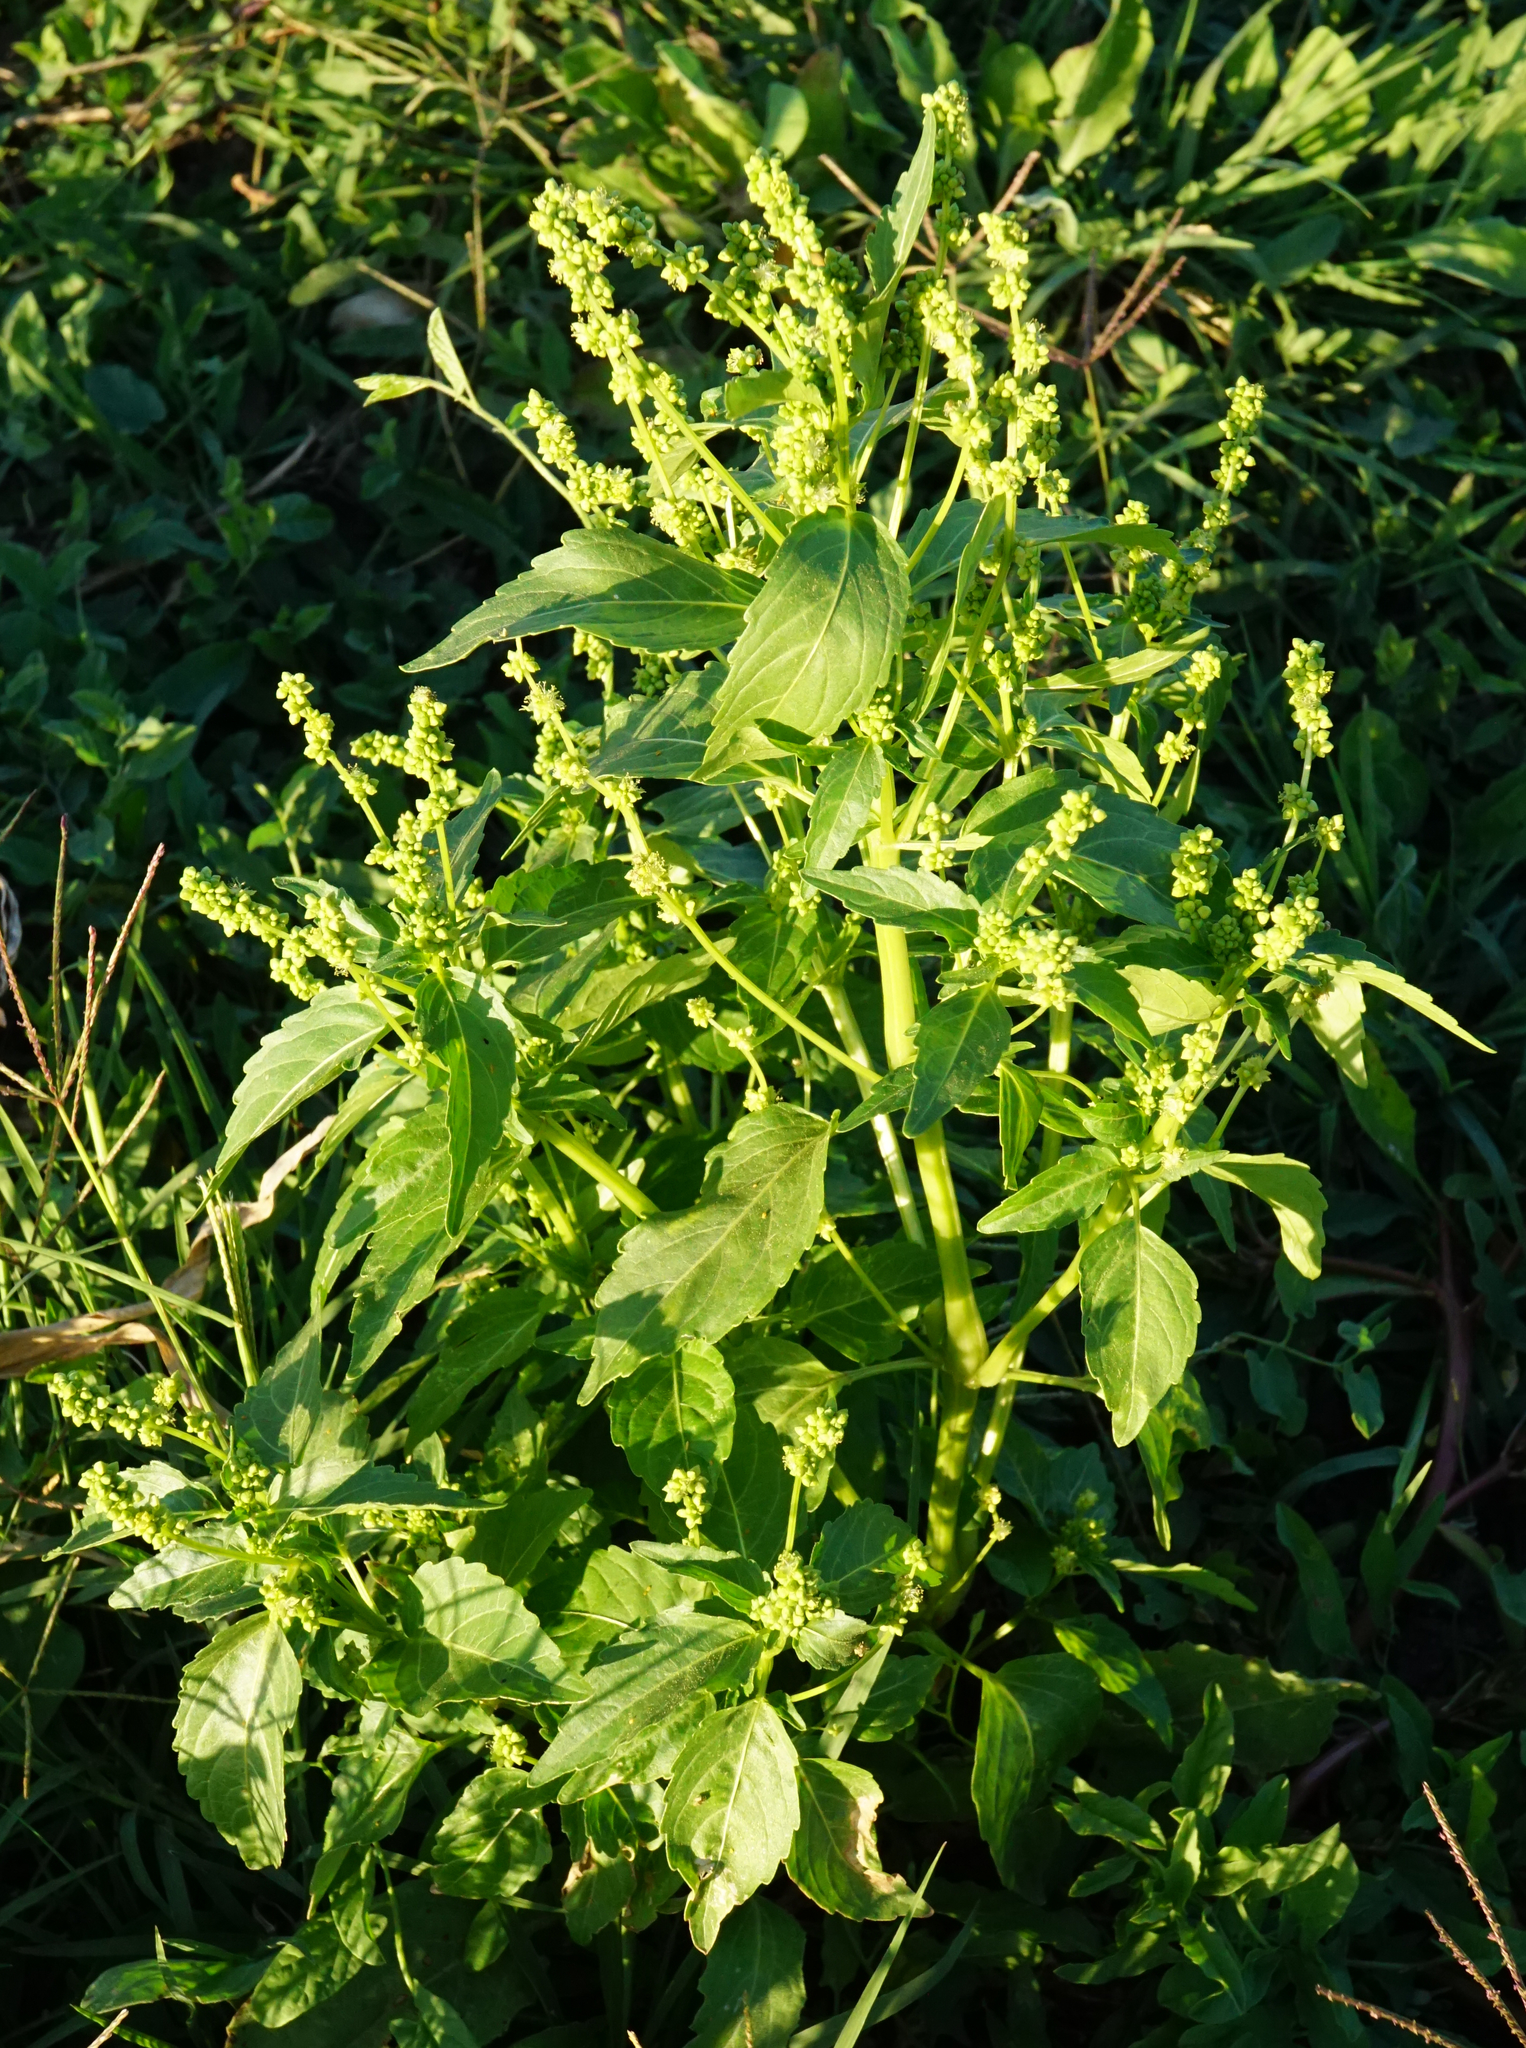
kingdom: Plantae
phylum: Tracheophyta
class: Magnoliopsida
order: Malpighiales
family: Euphorbiaceae
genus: Mercurialis
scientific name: Mercurialis annua
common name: Annual mercury
